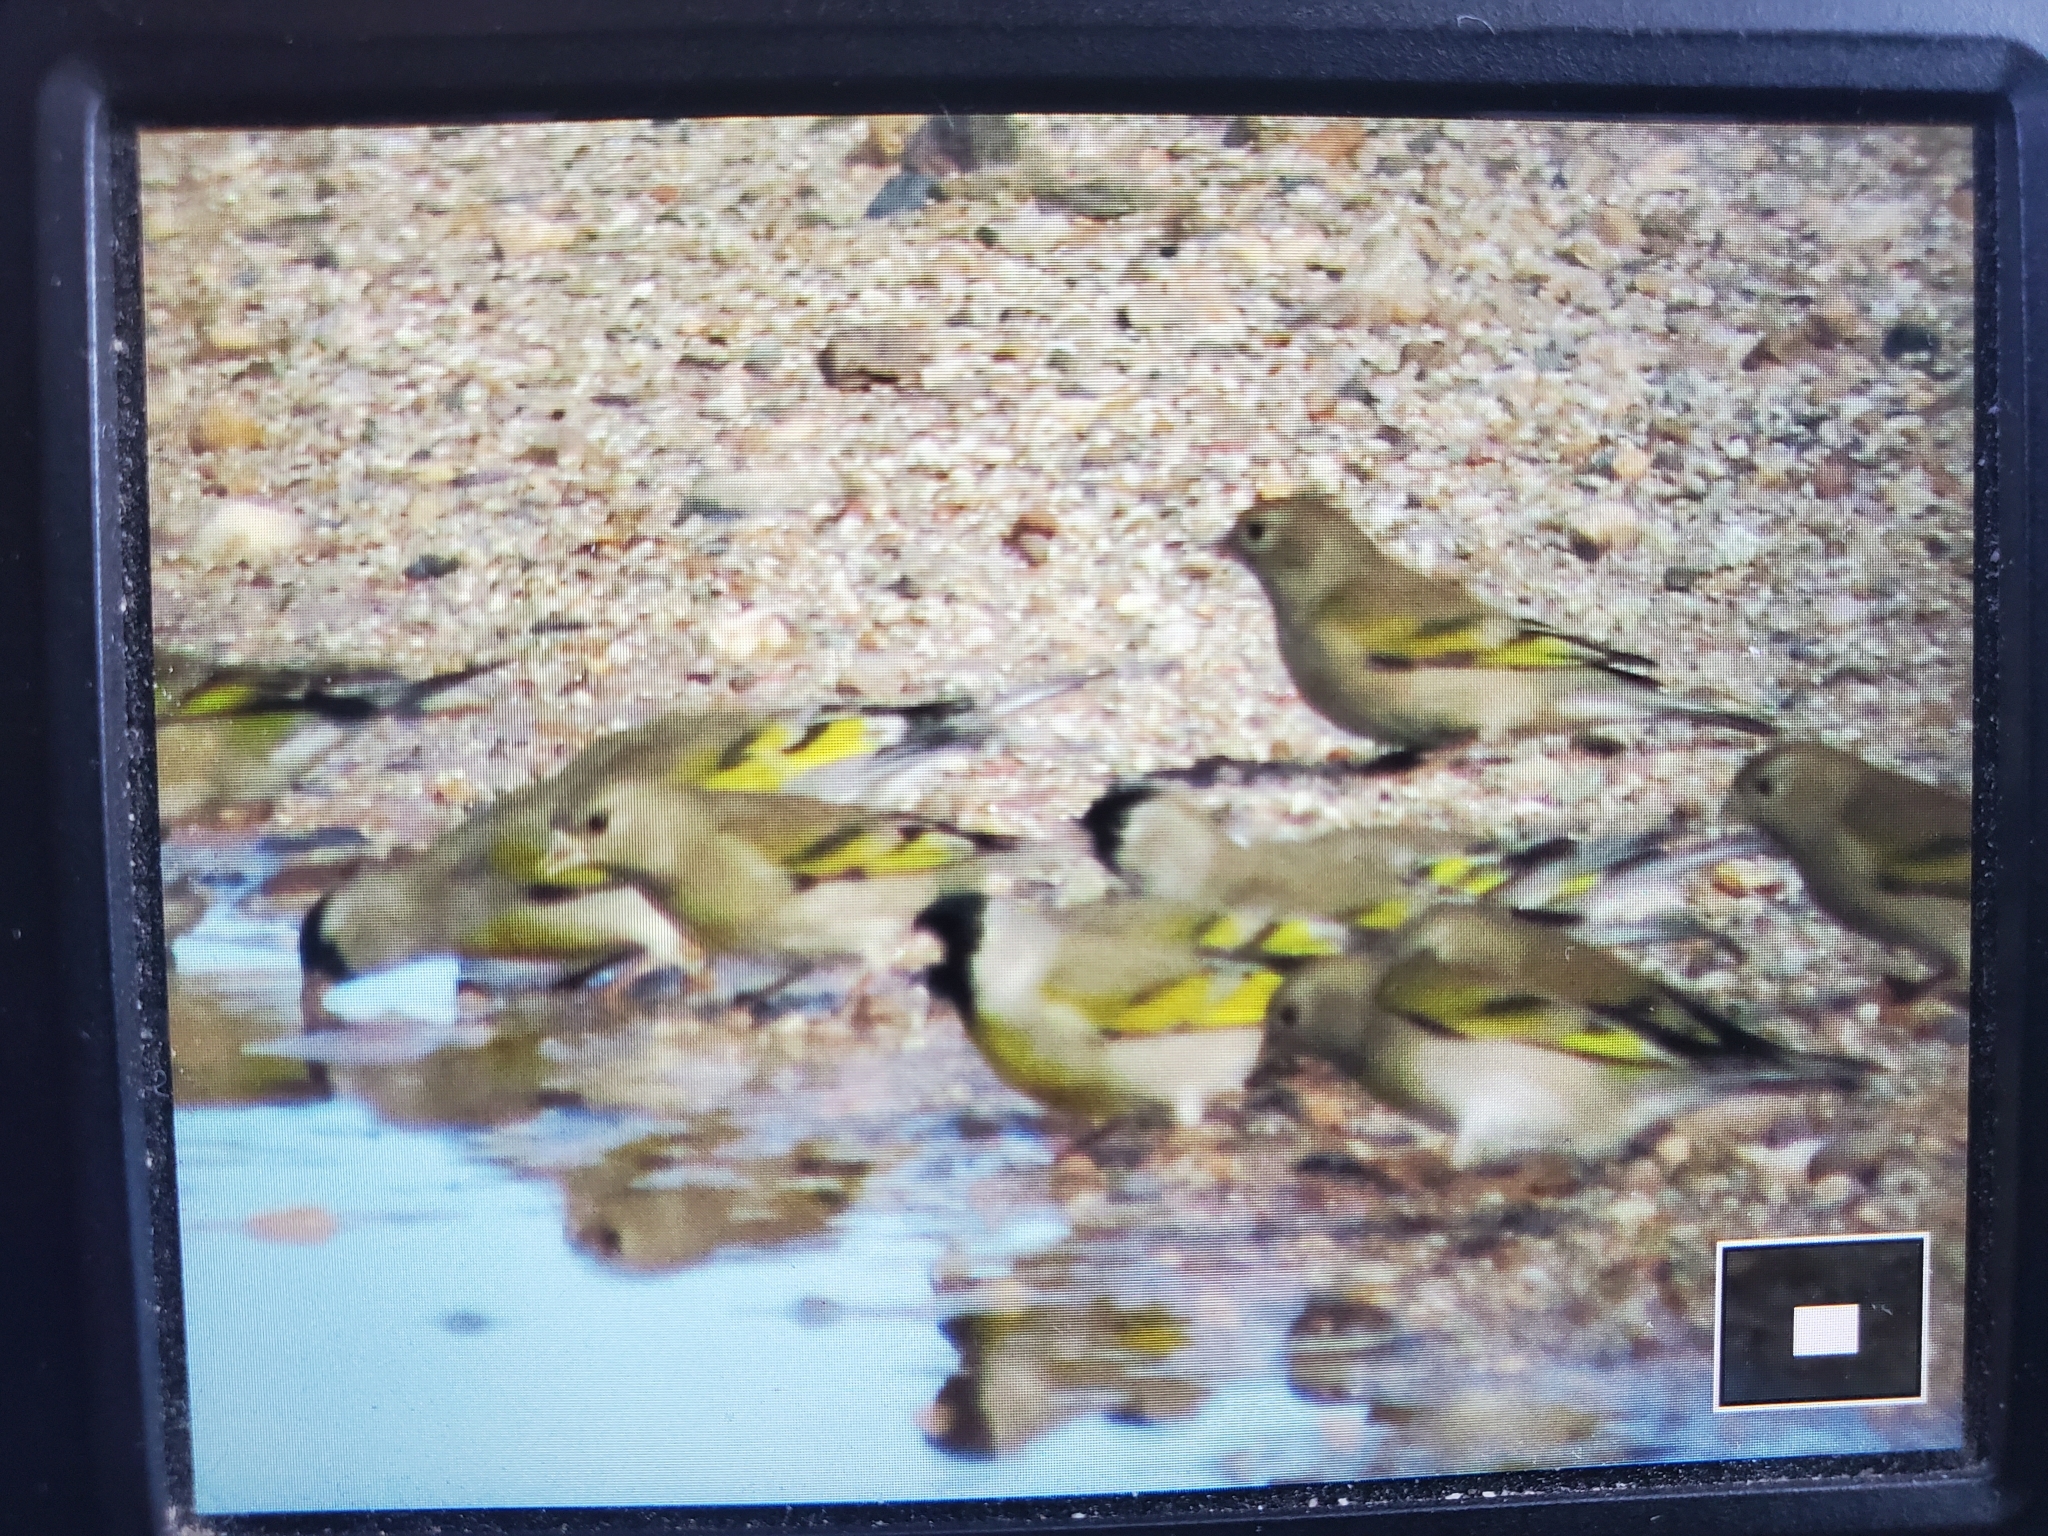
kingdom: Animalia
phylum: Chordata
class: Aves
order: Passeriformes
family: Fringillidae
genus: Spinus
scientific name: Spinus lawrencei
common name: Lawrence's goldfinch
